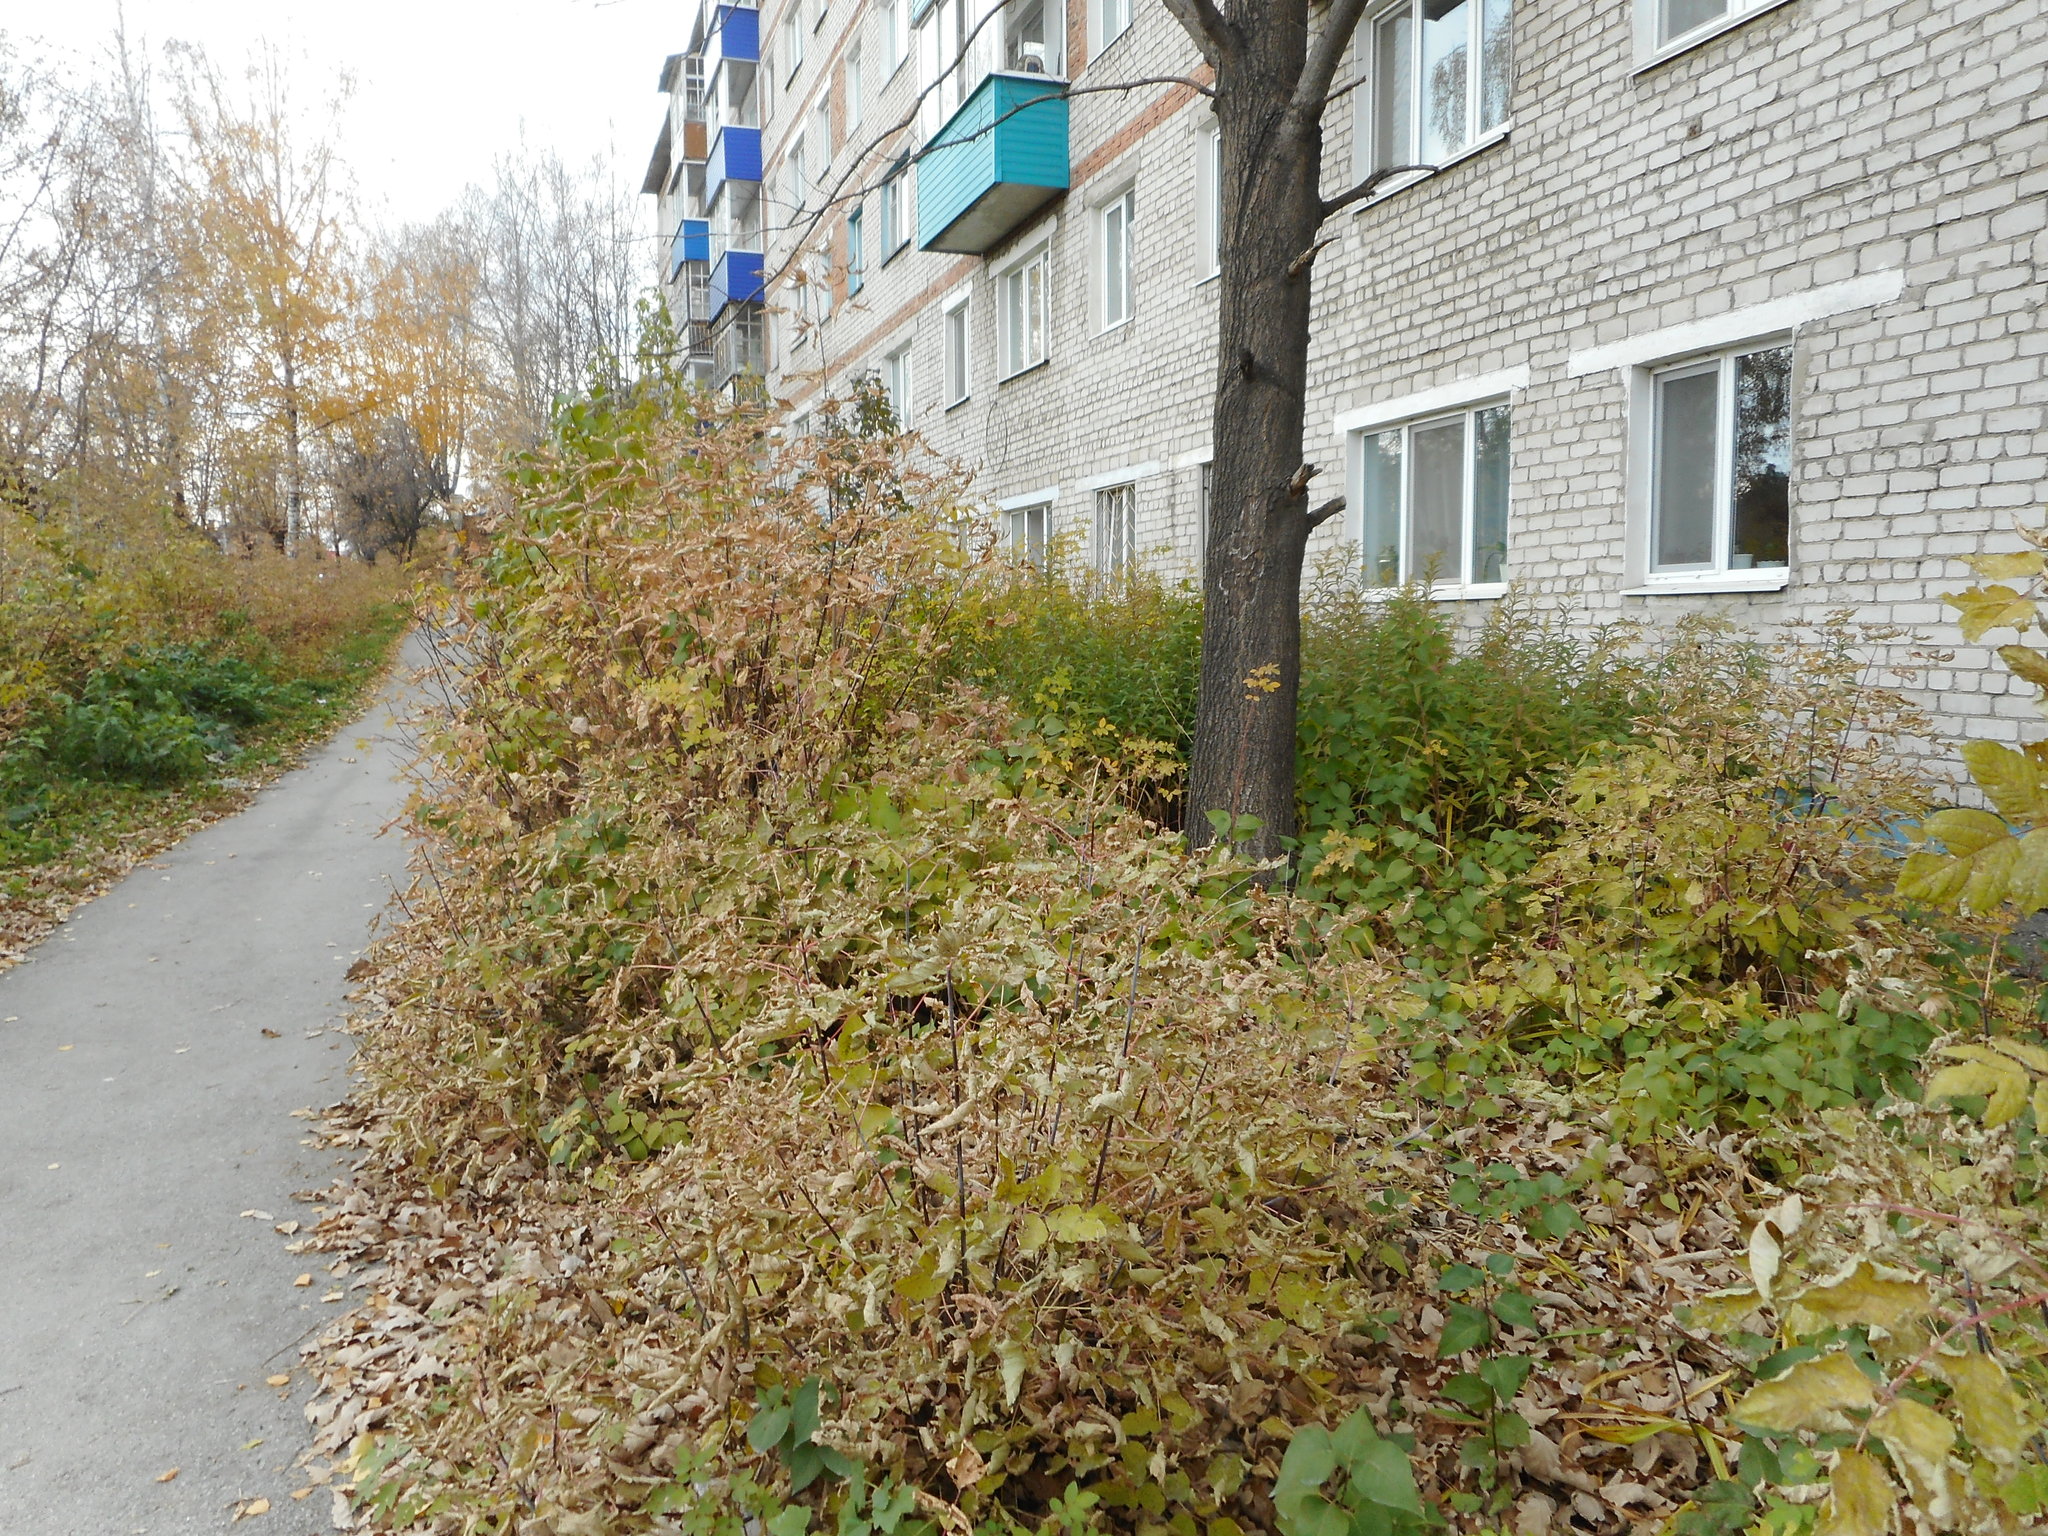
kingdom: Plantae
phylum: Tracheophyta
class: Magnoliopsida
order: Sapindales
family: Sapindaceae
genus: Acer
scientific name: Acer negundo
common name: Ashleaf maple
